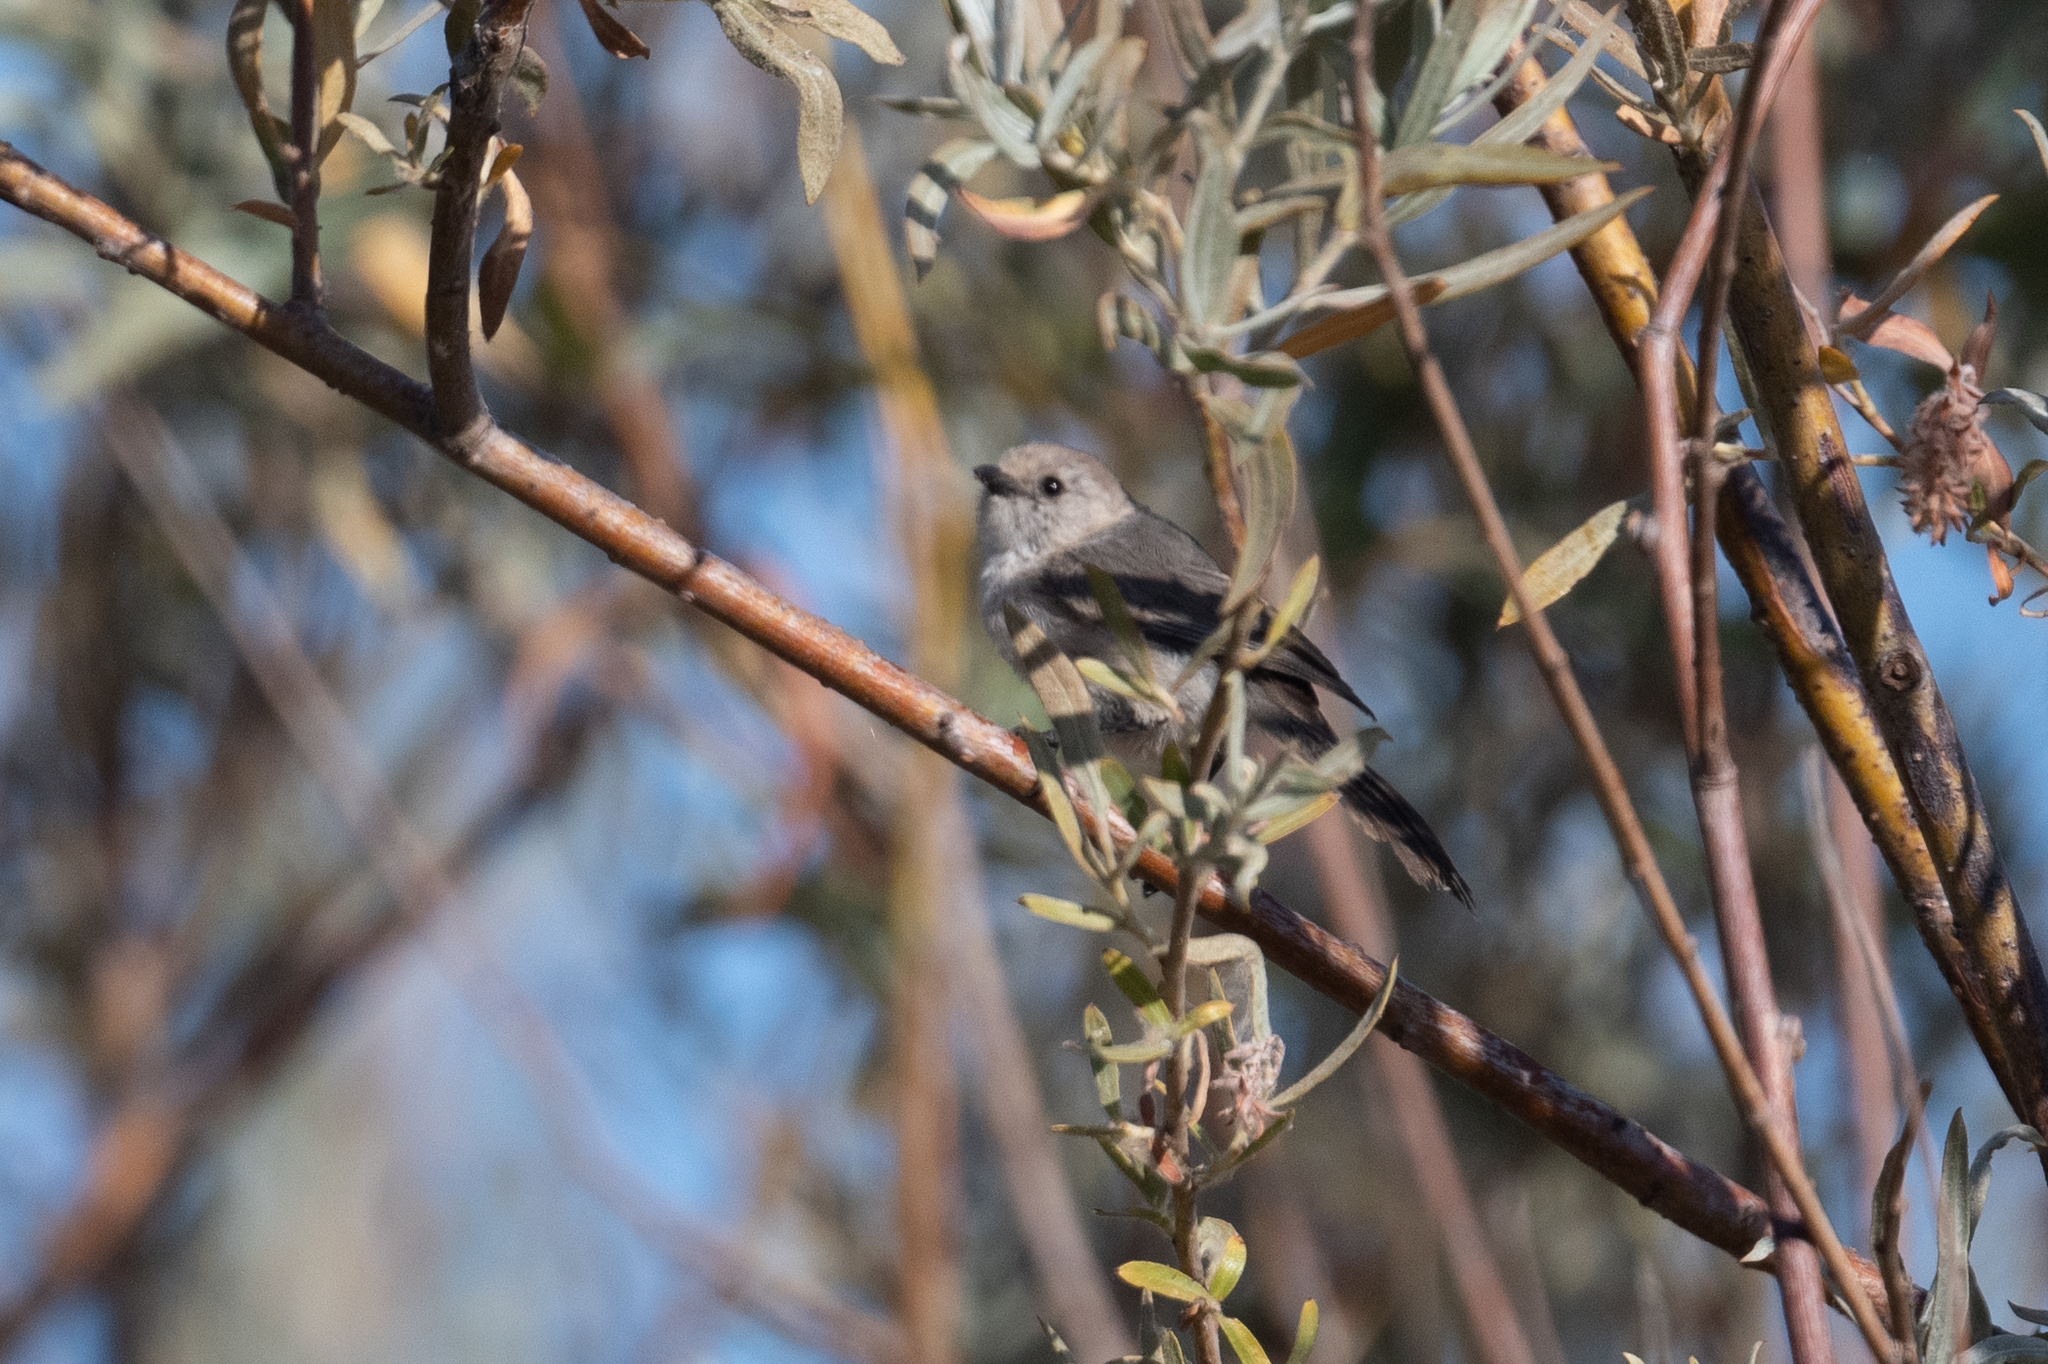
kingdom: Animalia
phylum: Chordata
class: Aves
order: Passeriformes
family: Aegithalidae
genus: Psaltriparus
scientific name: Psaltriparus minimus
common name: American bushtit
